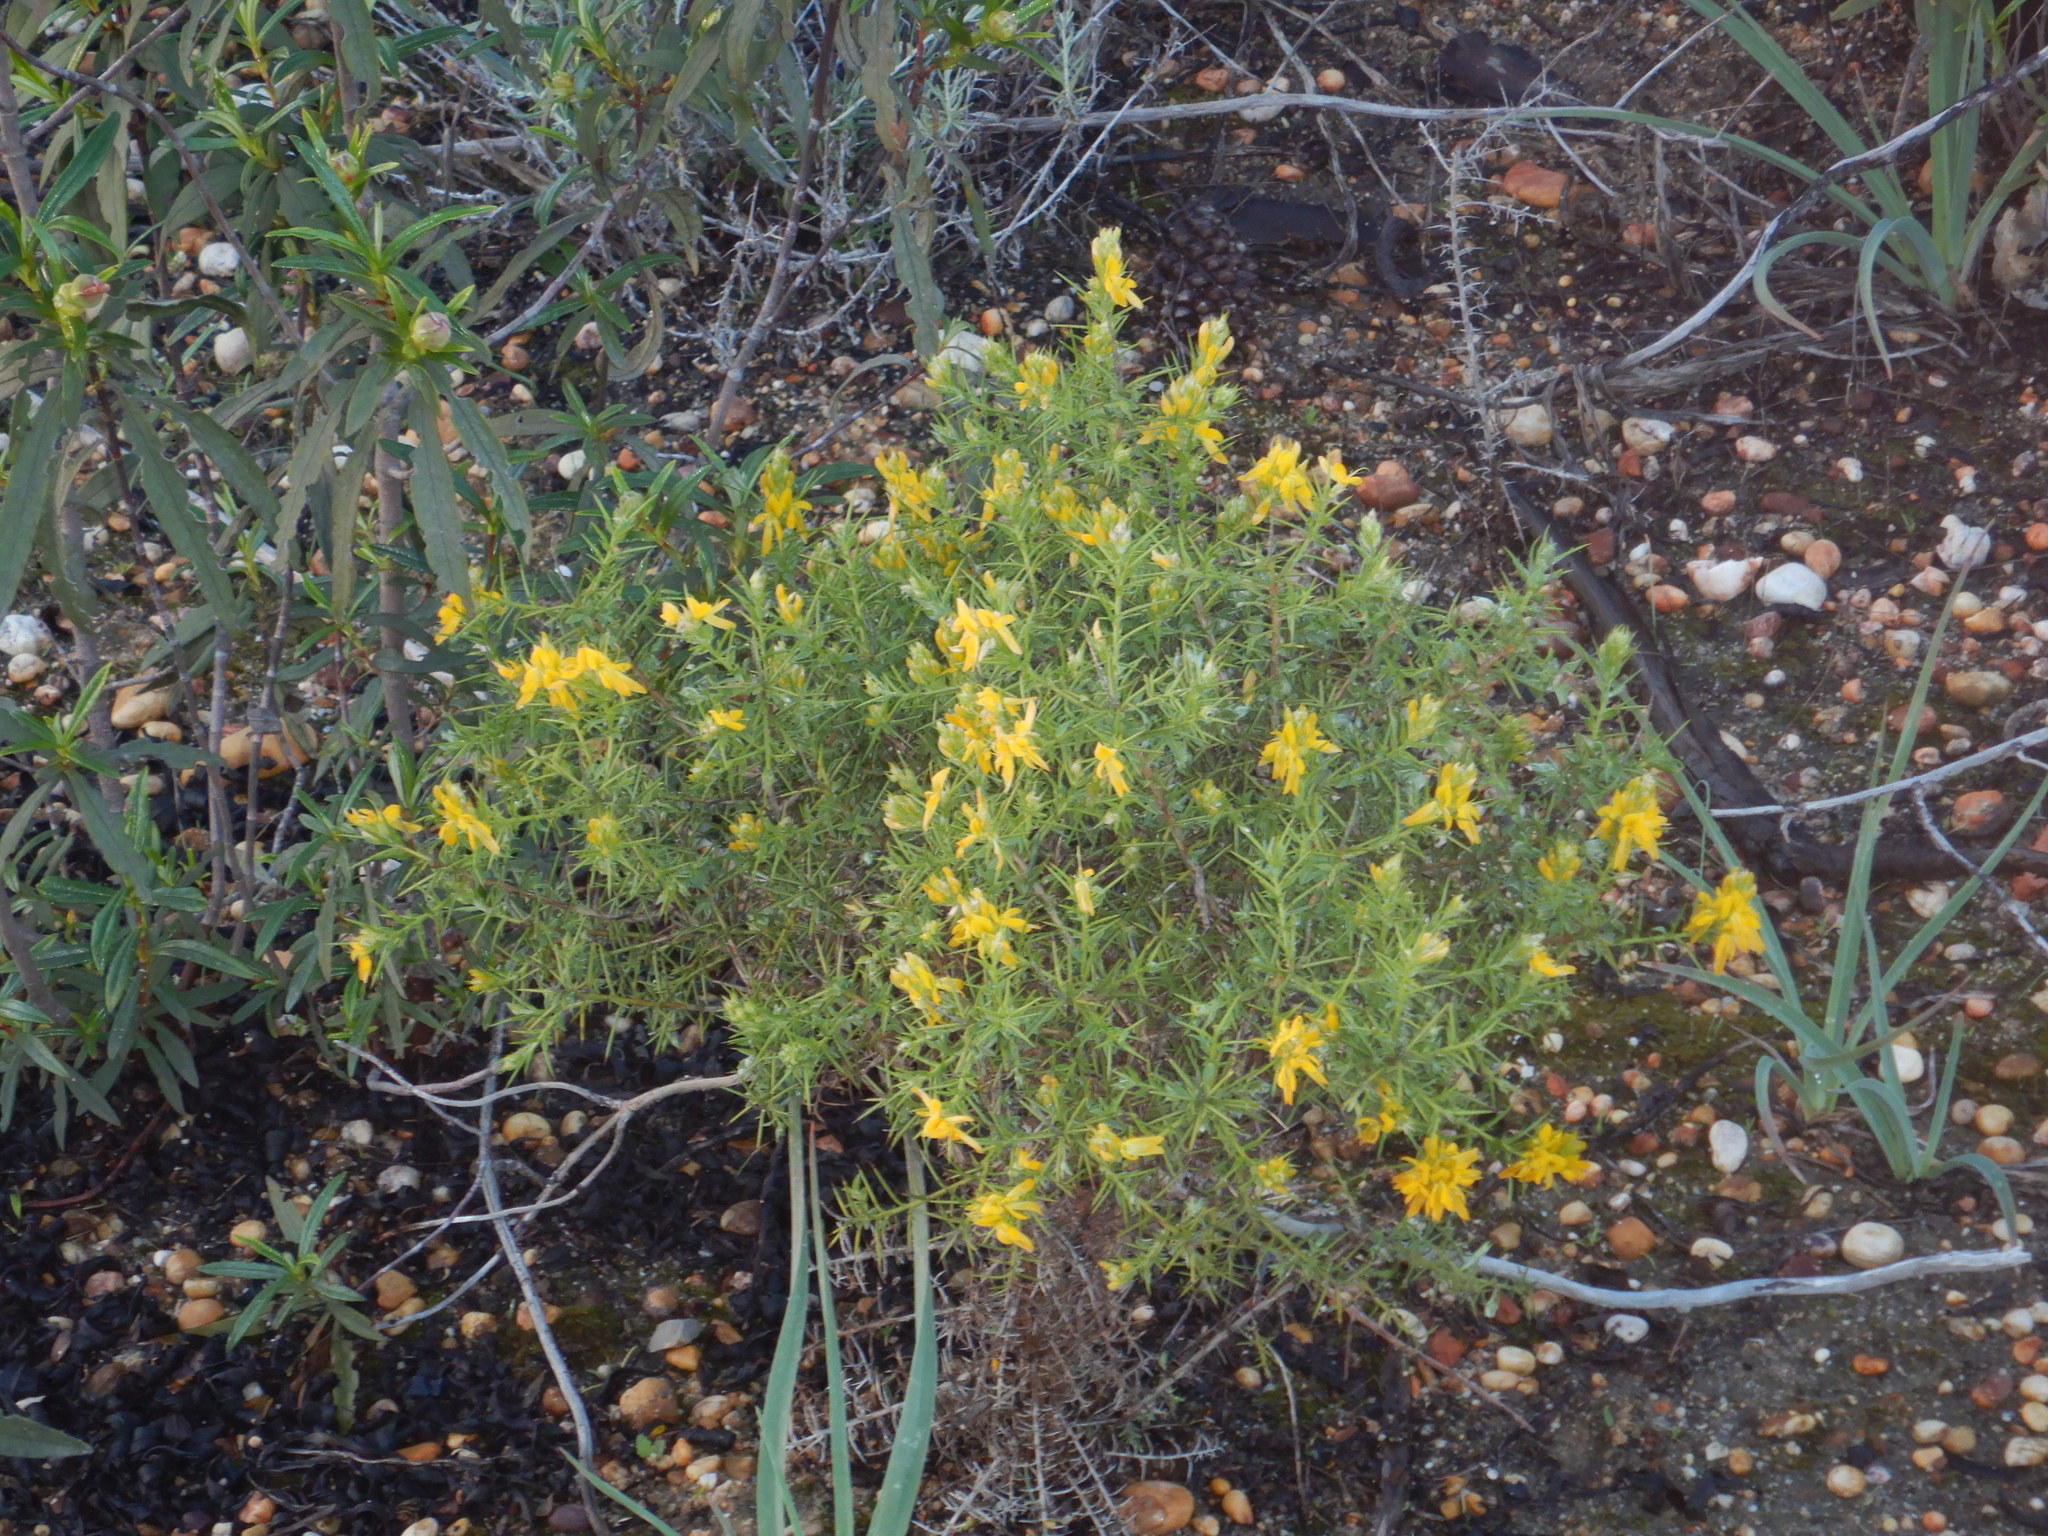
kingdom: Plantae
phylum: Tracheophyta
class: Magnoliopsida
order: Fabales
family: Fabaceae
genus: Genista
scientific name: Genista hirsuta
